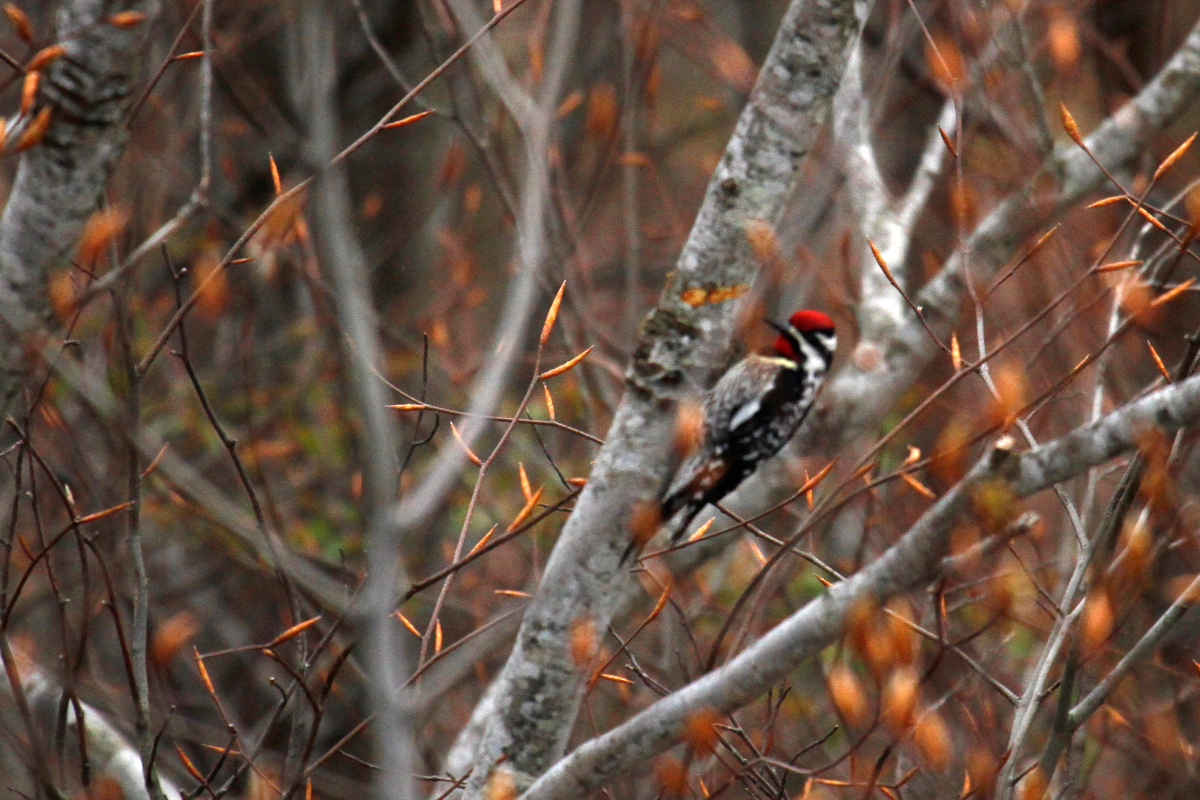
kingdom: Animalia
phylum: Chordata
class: Aves
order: Piciformes
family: Picidae
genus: Sphyrapicus
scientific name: Sphyrapicus varius
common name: Yellow-bellied sapsucker
